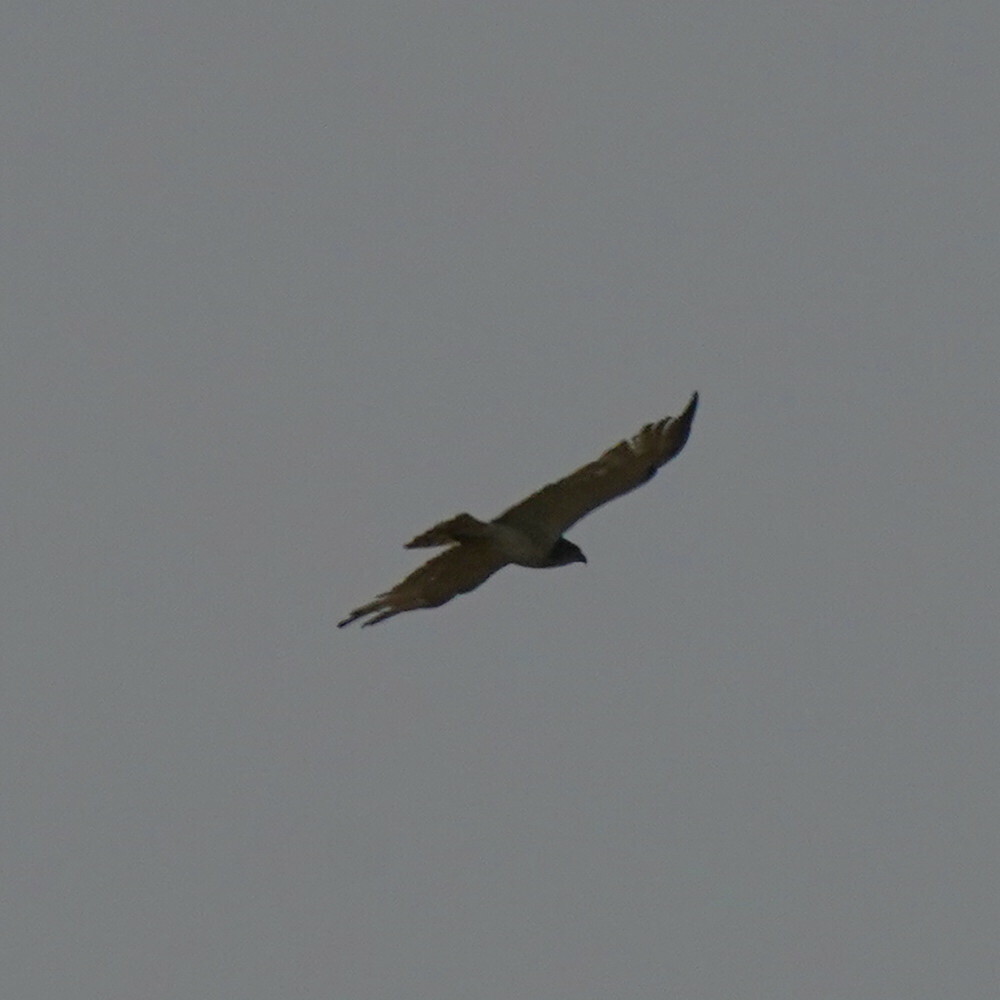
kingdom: Animalia
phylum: Chordata
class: Aves
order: Accipitriformes
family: Accipitridae
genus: Circaetus
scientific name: Circaetus beaudouini
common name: Beaudouin's snake eagle
